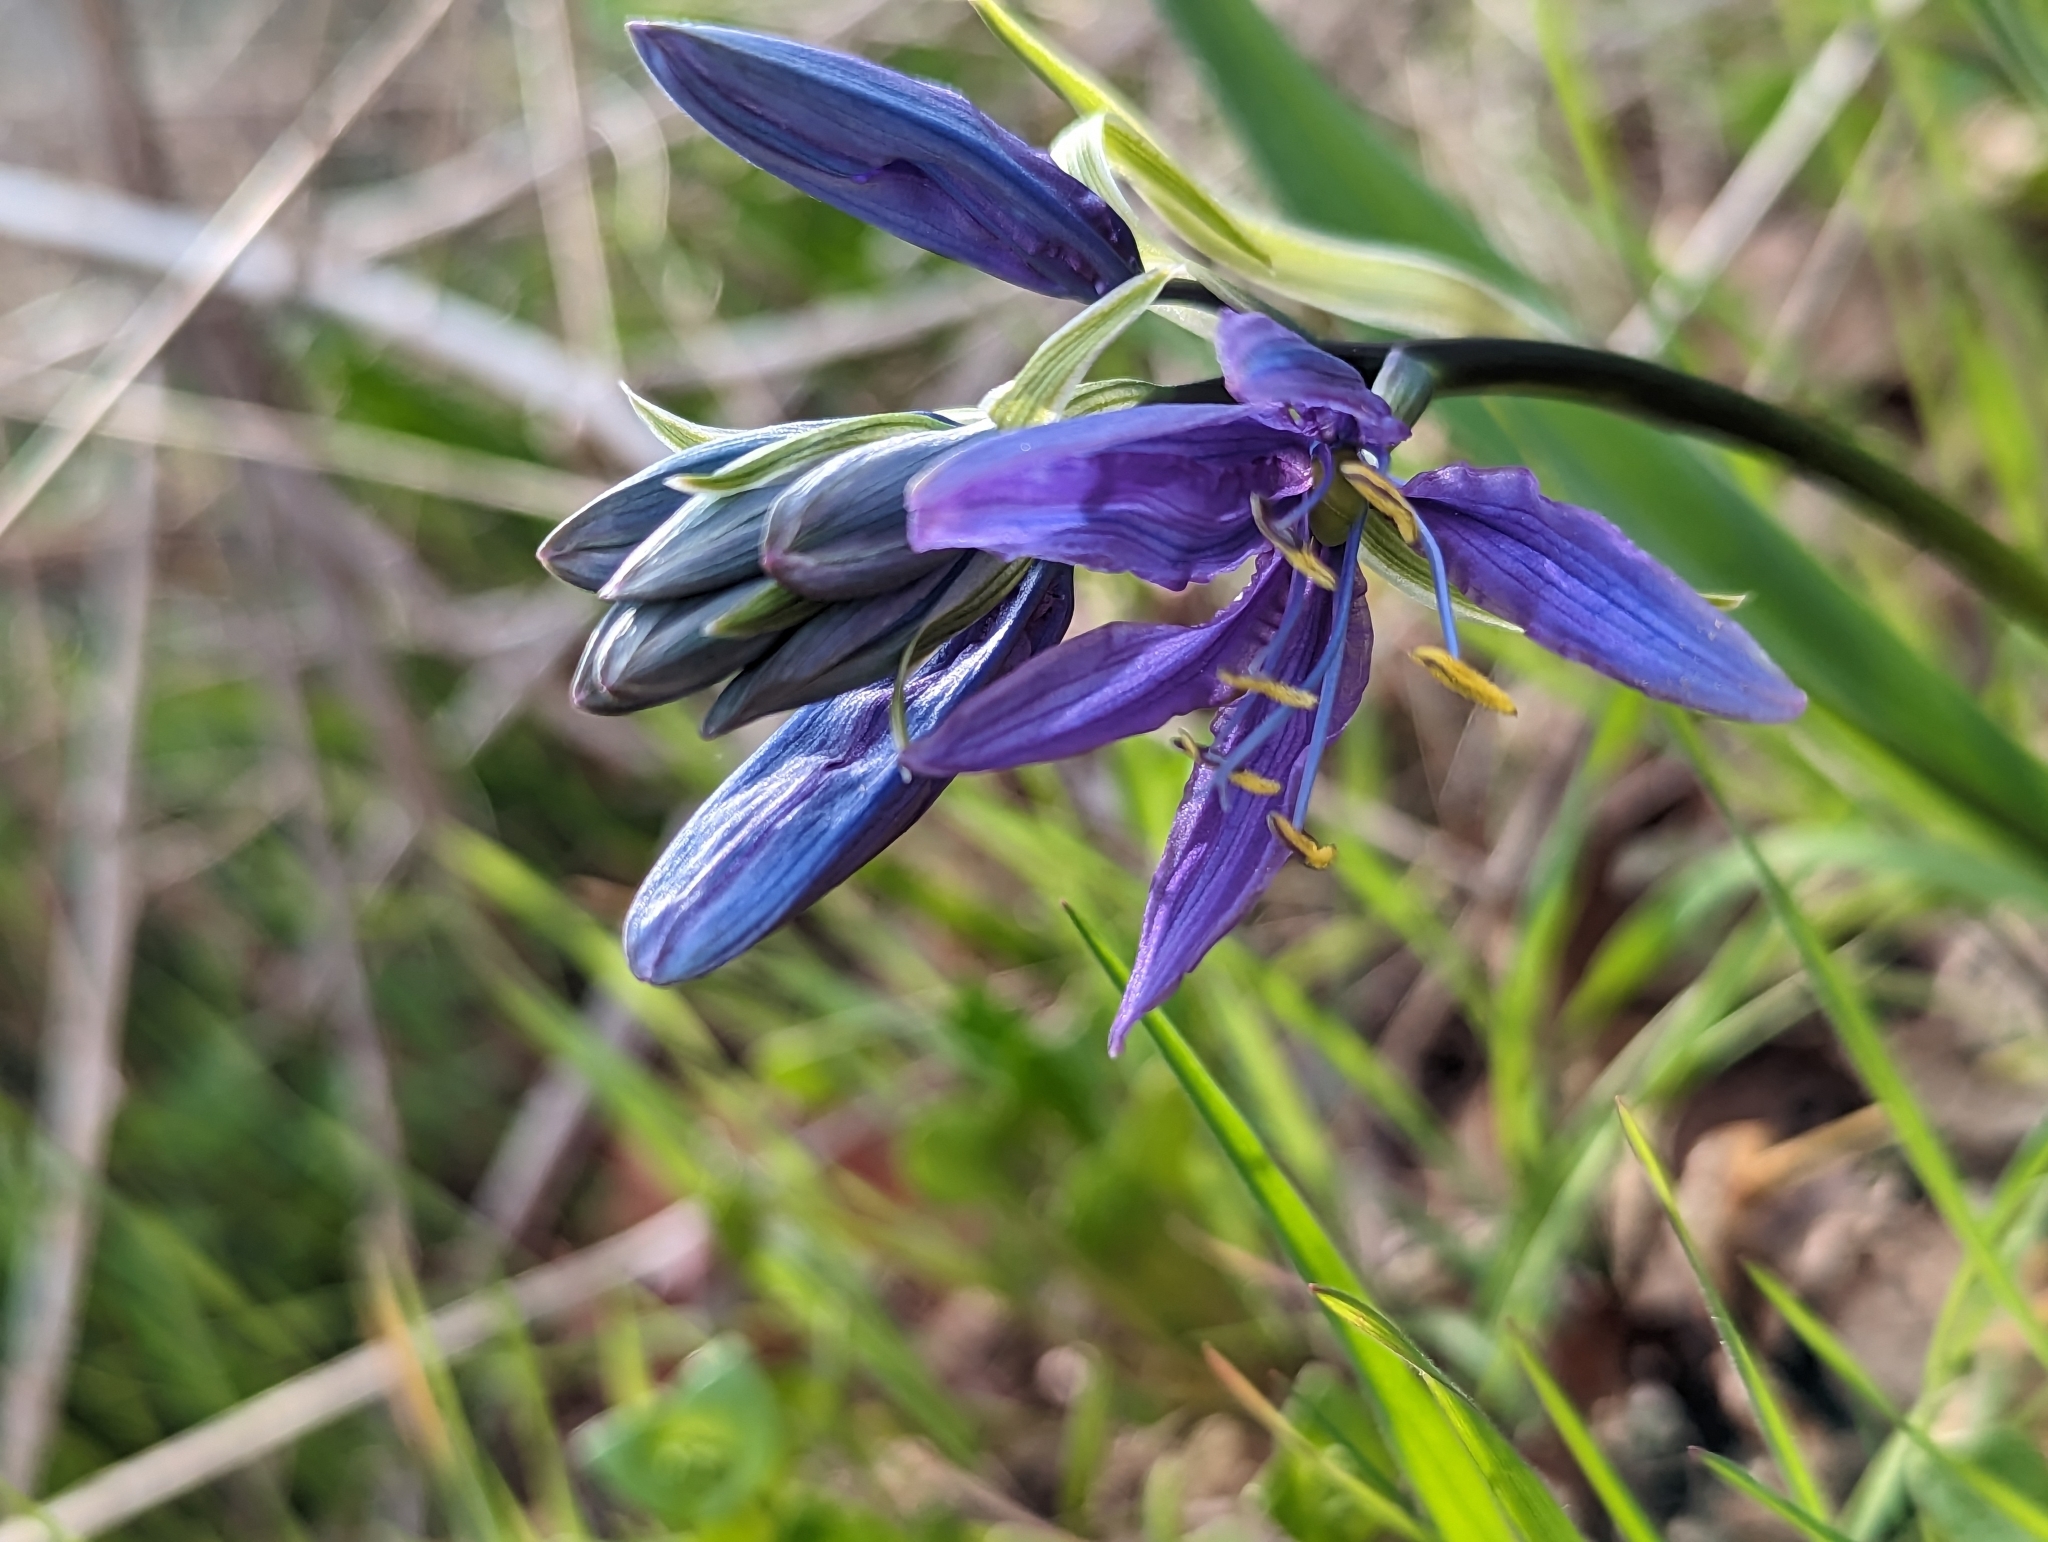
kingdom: Plantae
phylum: Tracheophyta
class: Liliopsida
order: Asparagales
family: Asparagaceae
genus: Camassia
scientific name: Camassia quamash
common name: Common camas
